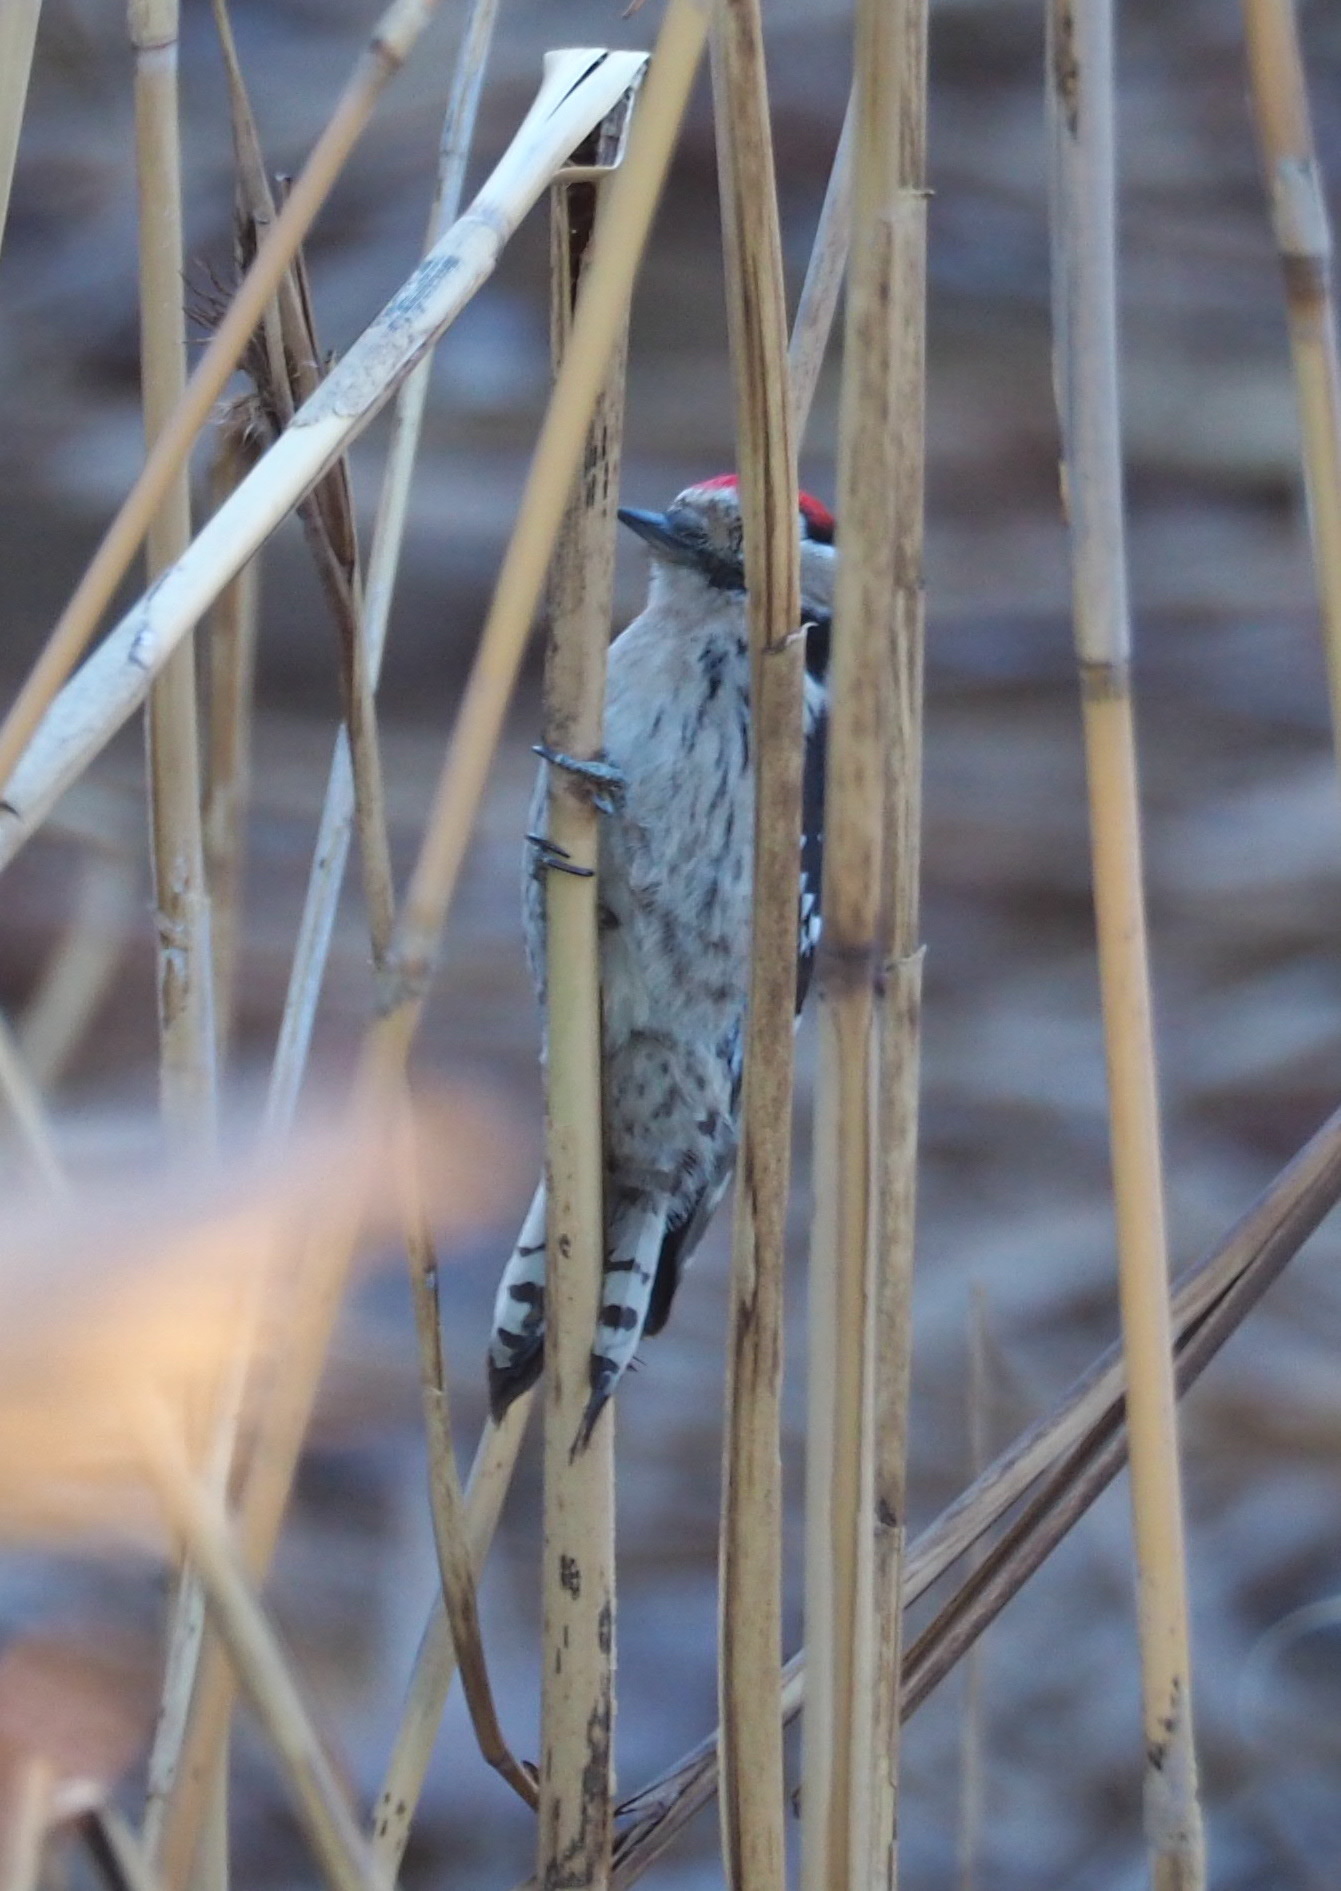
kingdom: Animalia
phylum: Chordata
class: Aves
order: Piciformes
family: Picidae
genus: Dryobates
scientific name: Dryobates minor
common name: Lesser spotted woodpecker
